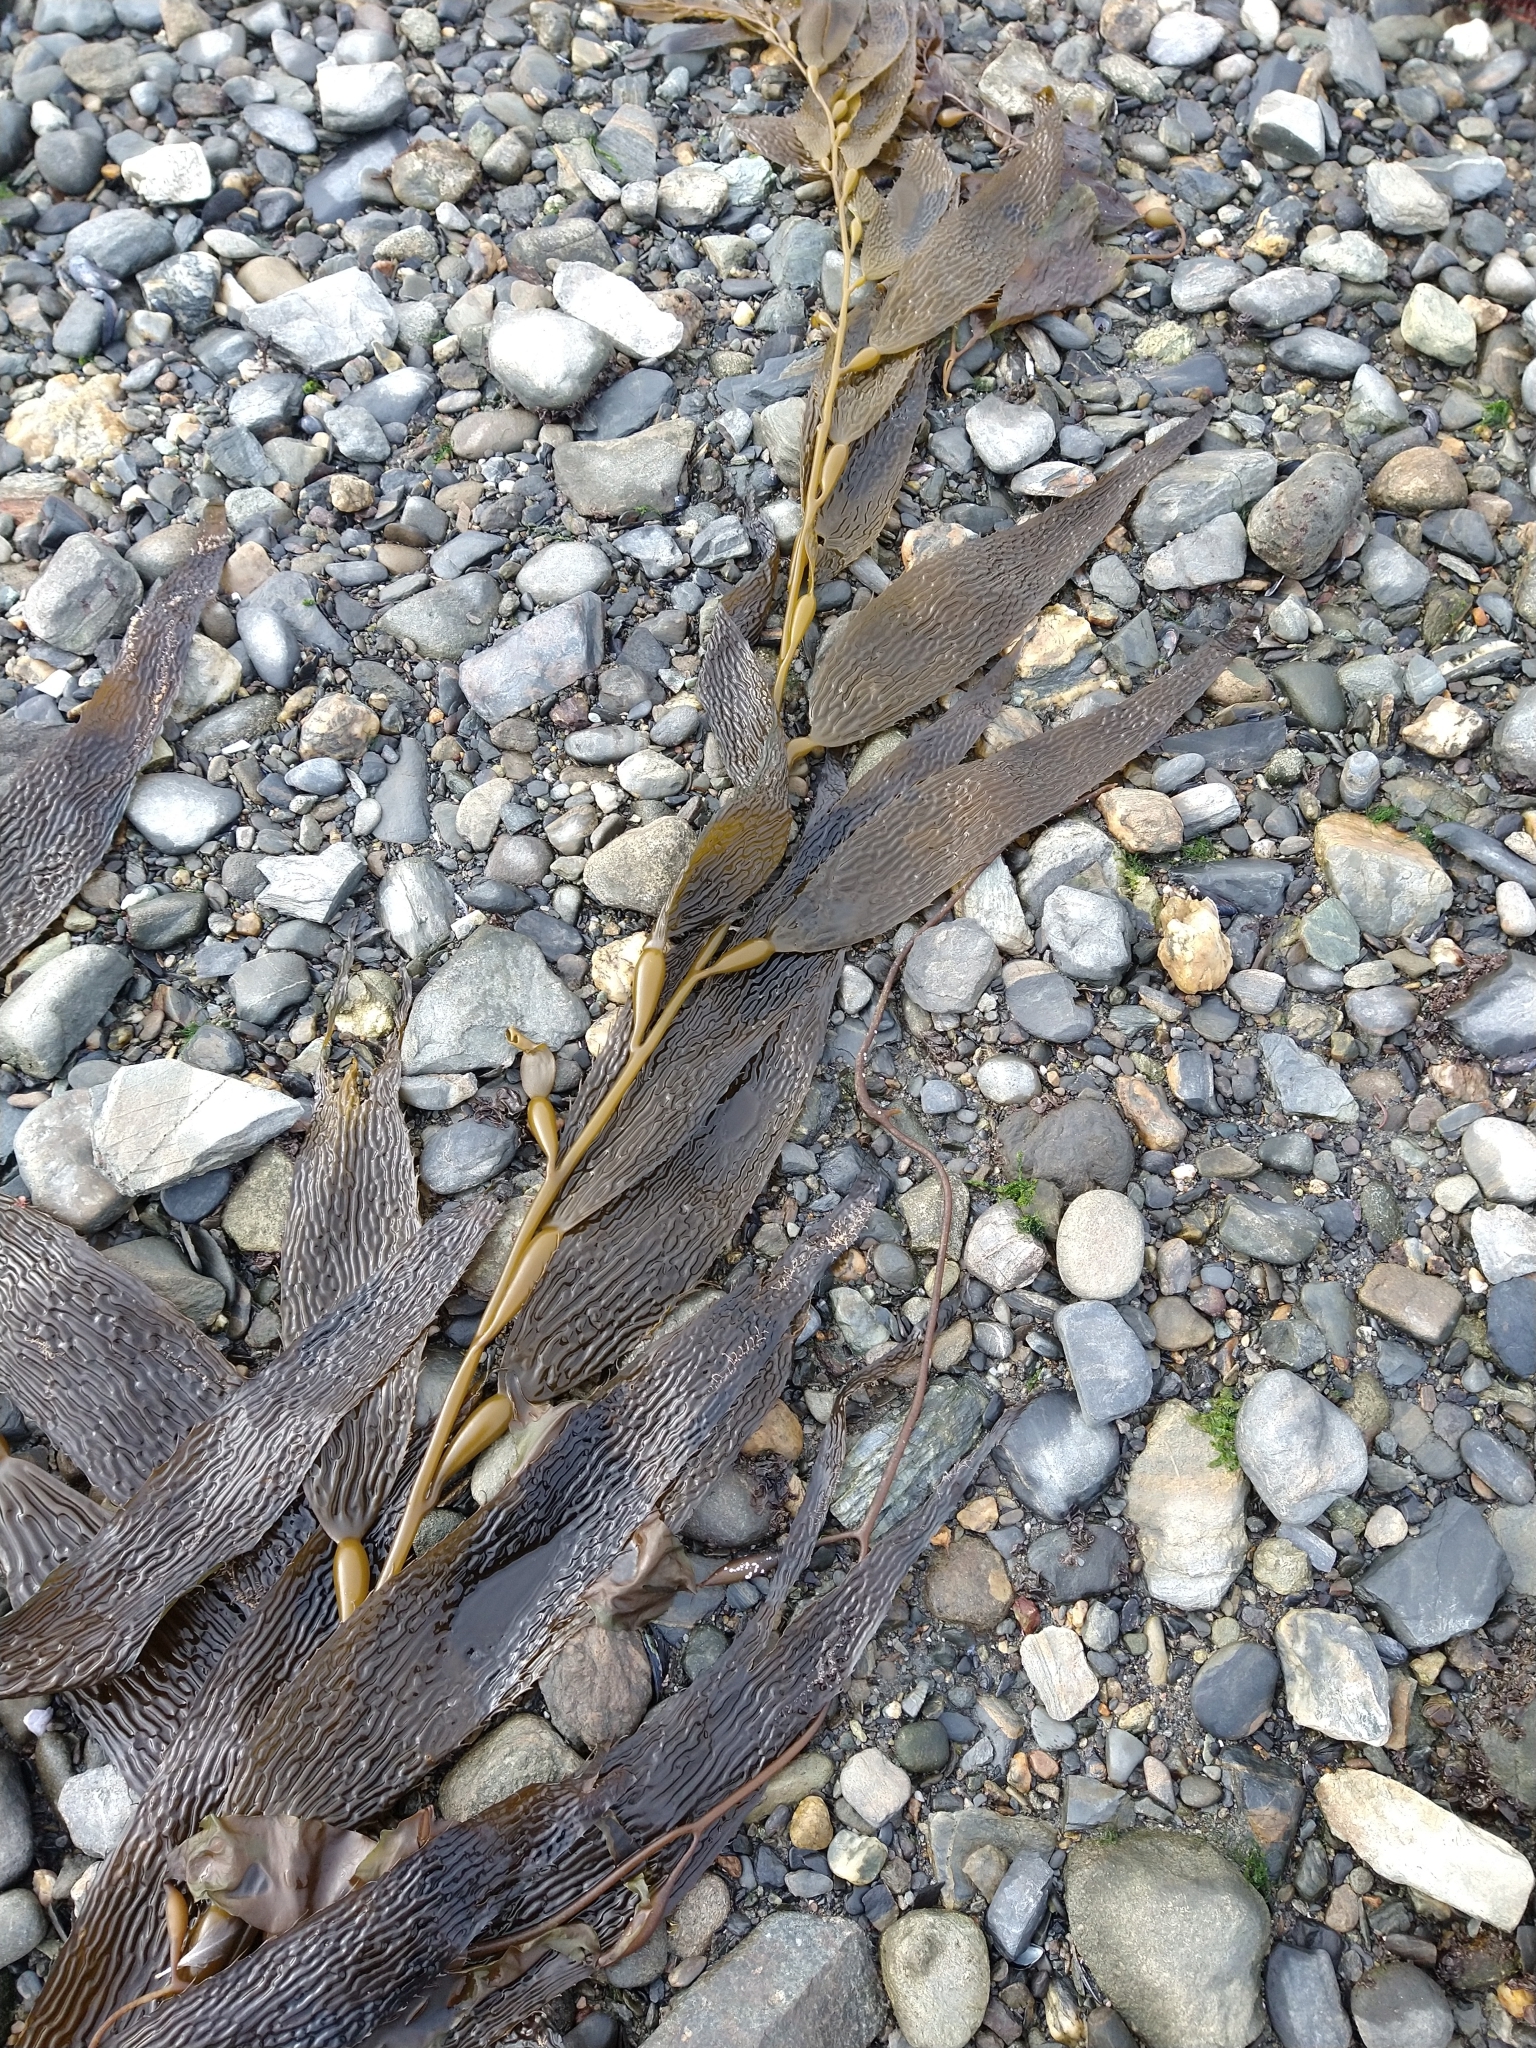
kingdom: Chromista
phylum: Ochrophyta
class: Phaeophyceae
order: Laminariales
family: Laminariaceae
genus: Macrocystis
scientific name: Macrocystis pyrifera
